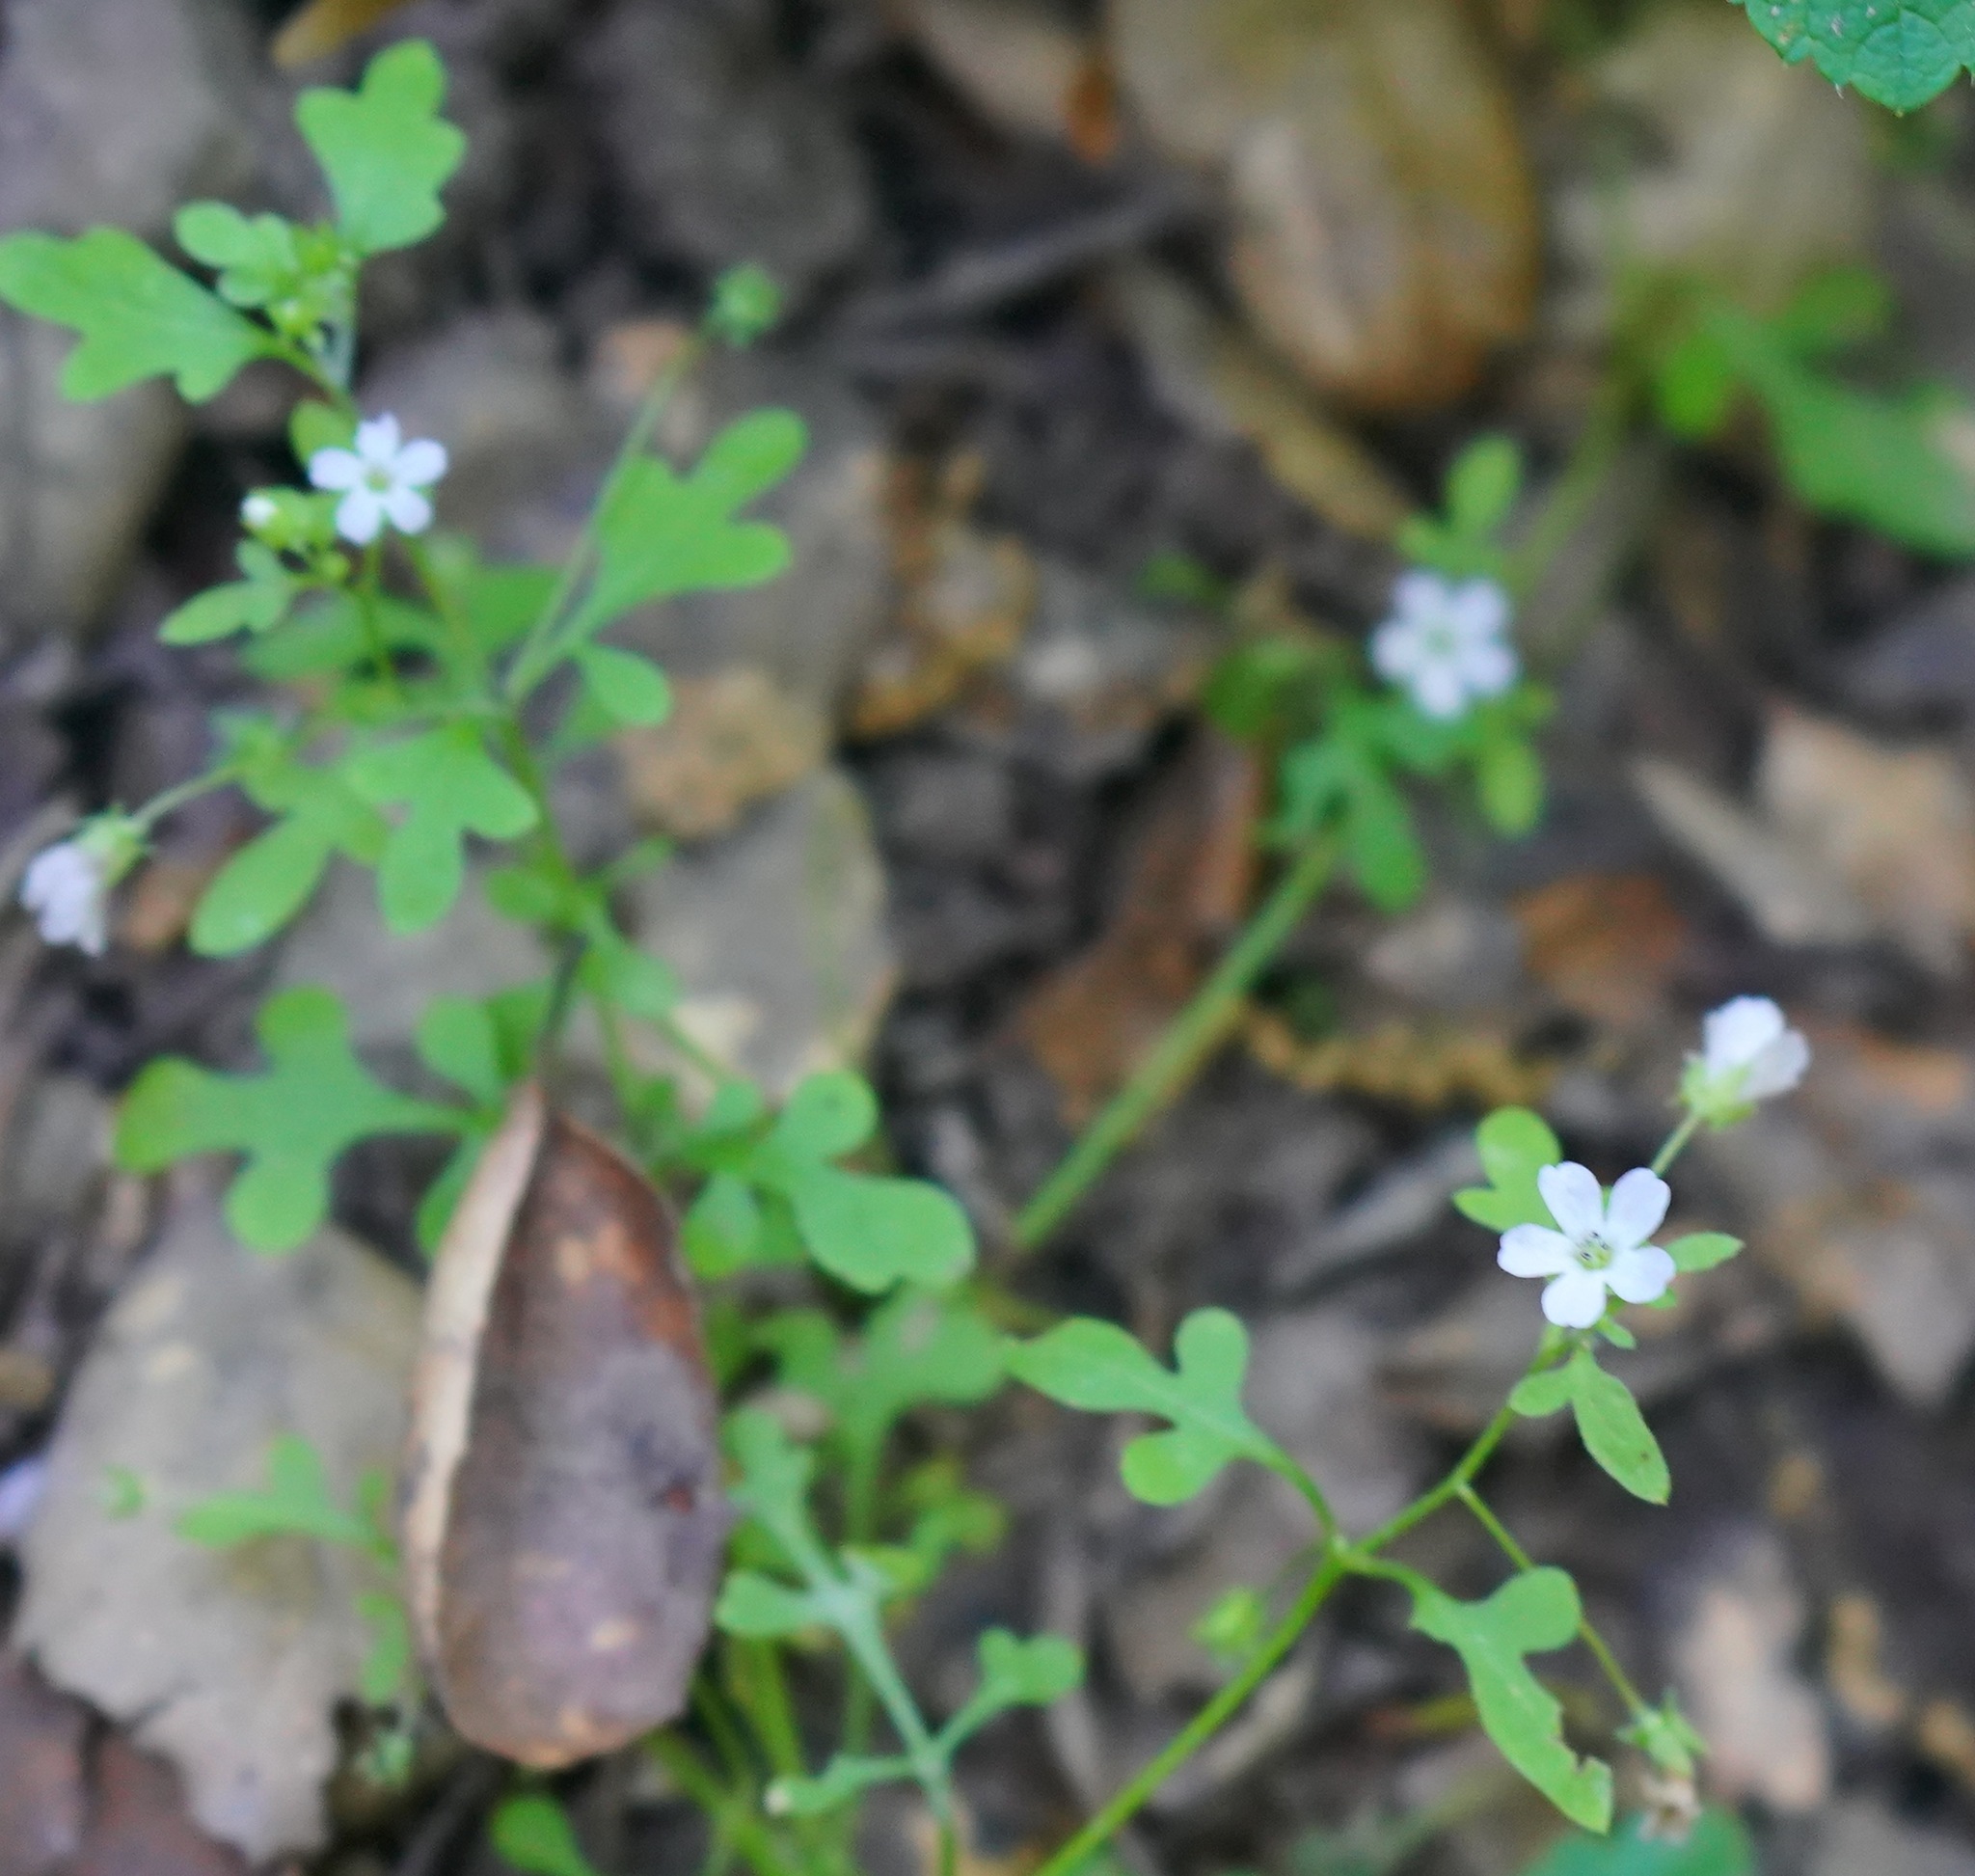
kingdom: Plantae
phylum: Tracheophyta
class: Magnoliopsida
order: Boraginales
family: Hydrophyllaceae
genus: Nemophila
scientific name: Nemophila heterophylla
